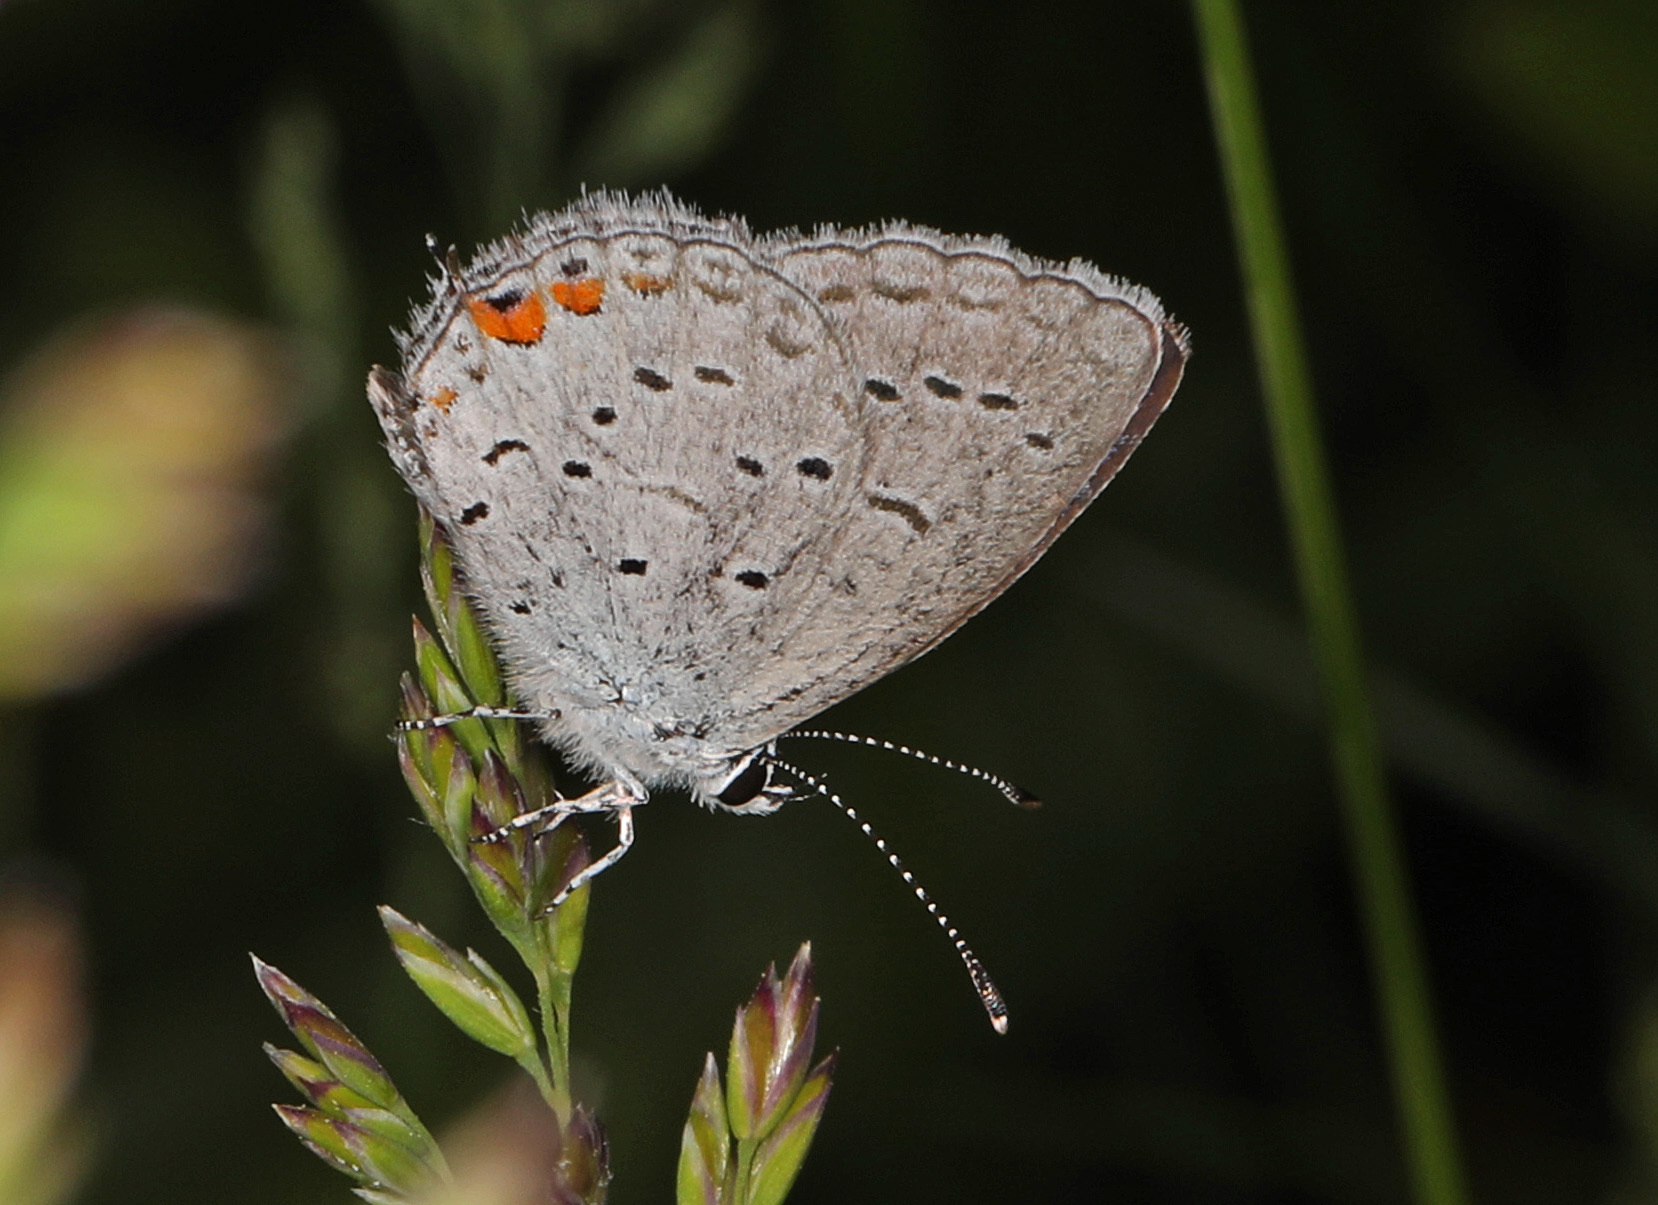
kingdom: Animalia
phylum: Arthropoda
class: Insecta
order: Lepidoptera
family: Lycaenidae
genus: Elkalyce
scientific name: Elkalyce comyntas
